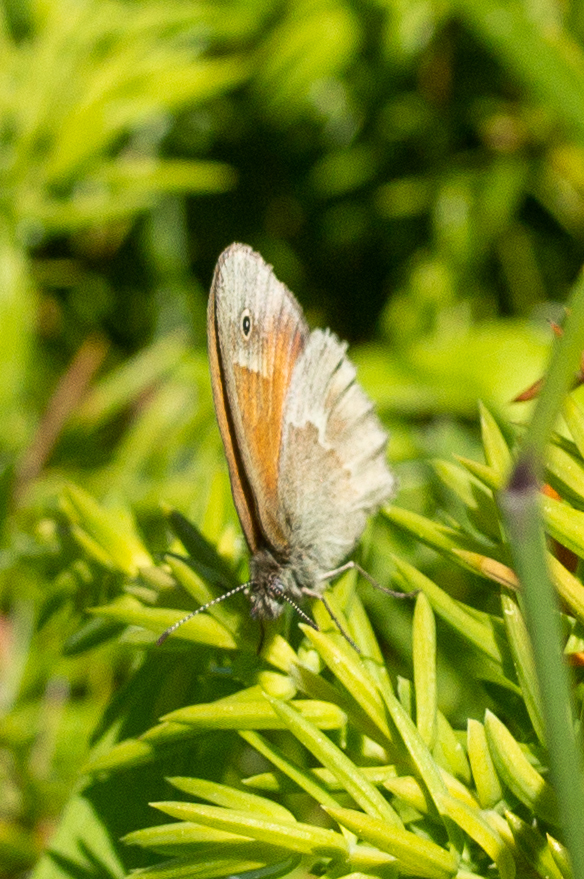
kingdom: Animalia
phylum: Arthropoda
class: Insecta
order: Lepidoptera
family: Nymphalidae
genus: Coenonympha
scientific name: Coenonympha california
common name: Common ringlet
